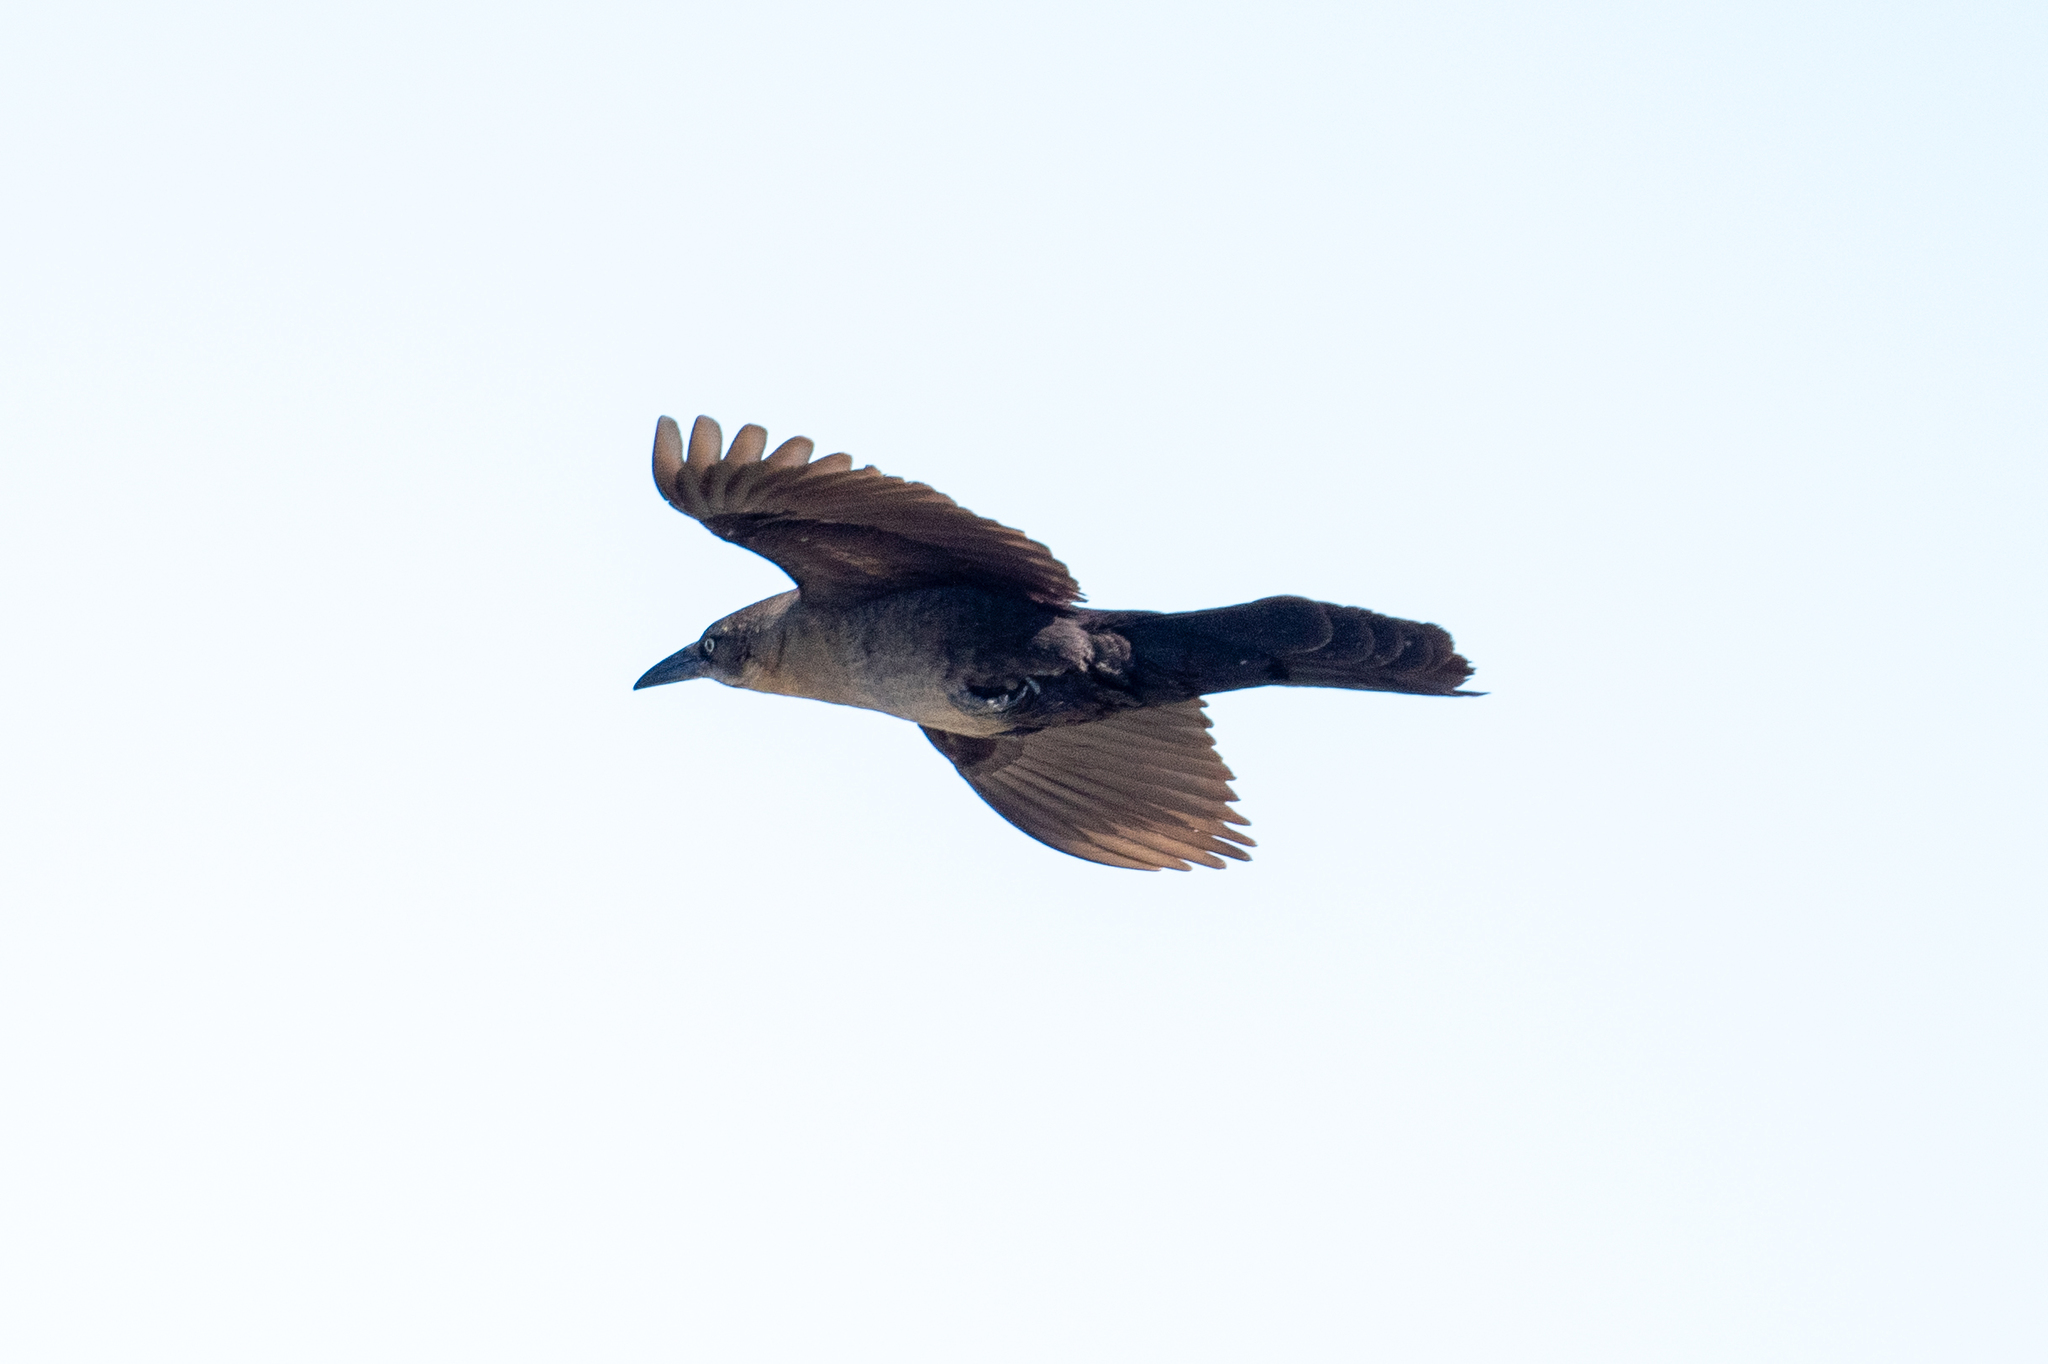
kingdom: Animalia
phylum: Chordata
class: Aves
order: Passeriformes
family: Icteridae
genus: Quiscalus
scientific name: Quiscalus mexicanus
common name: Great-tailed grackle
